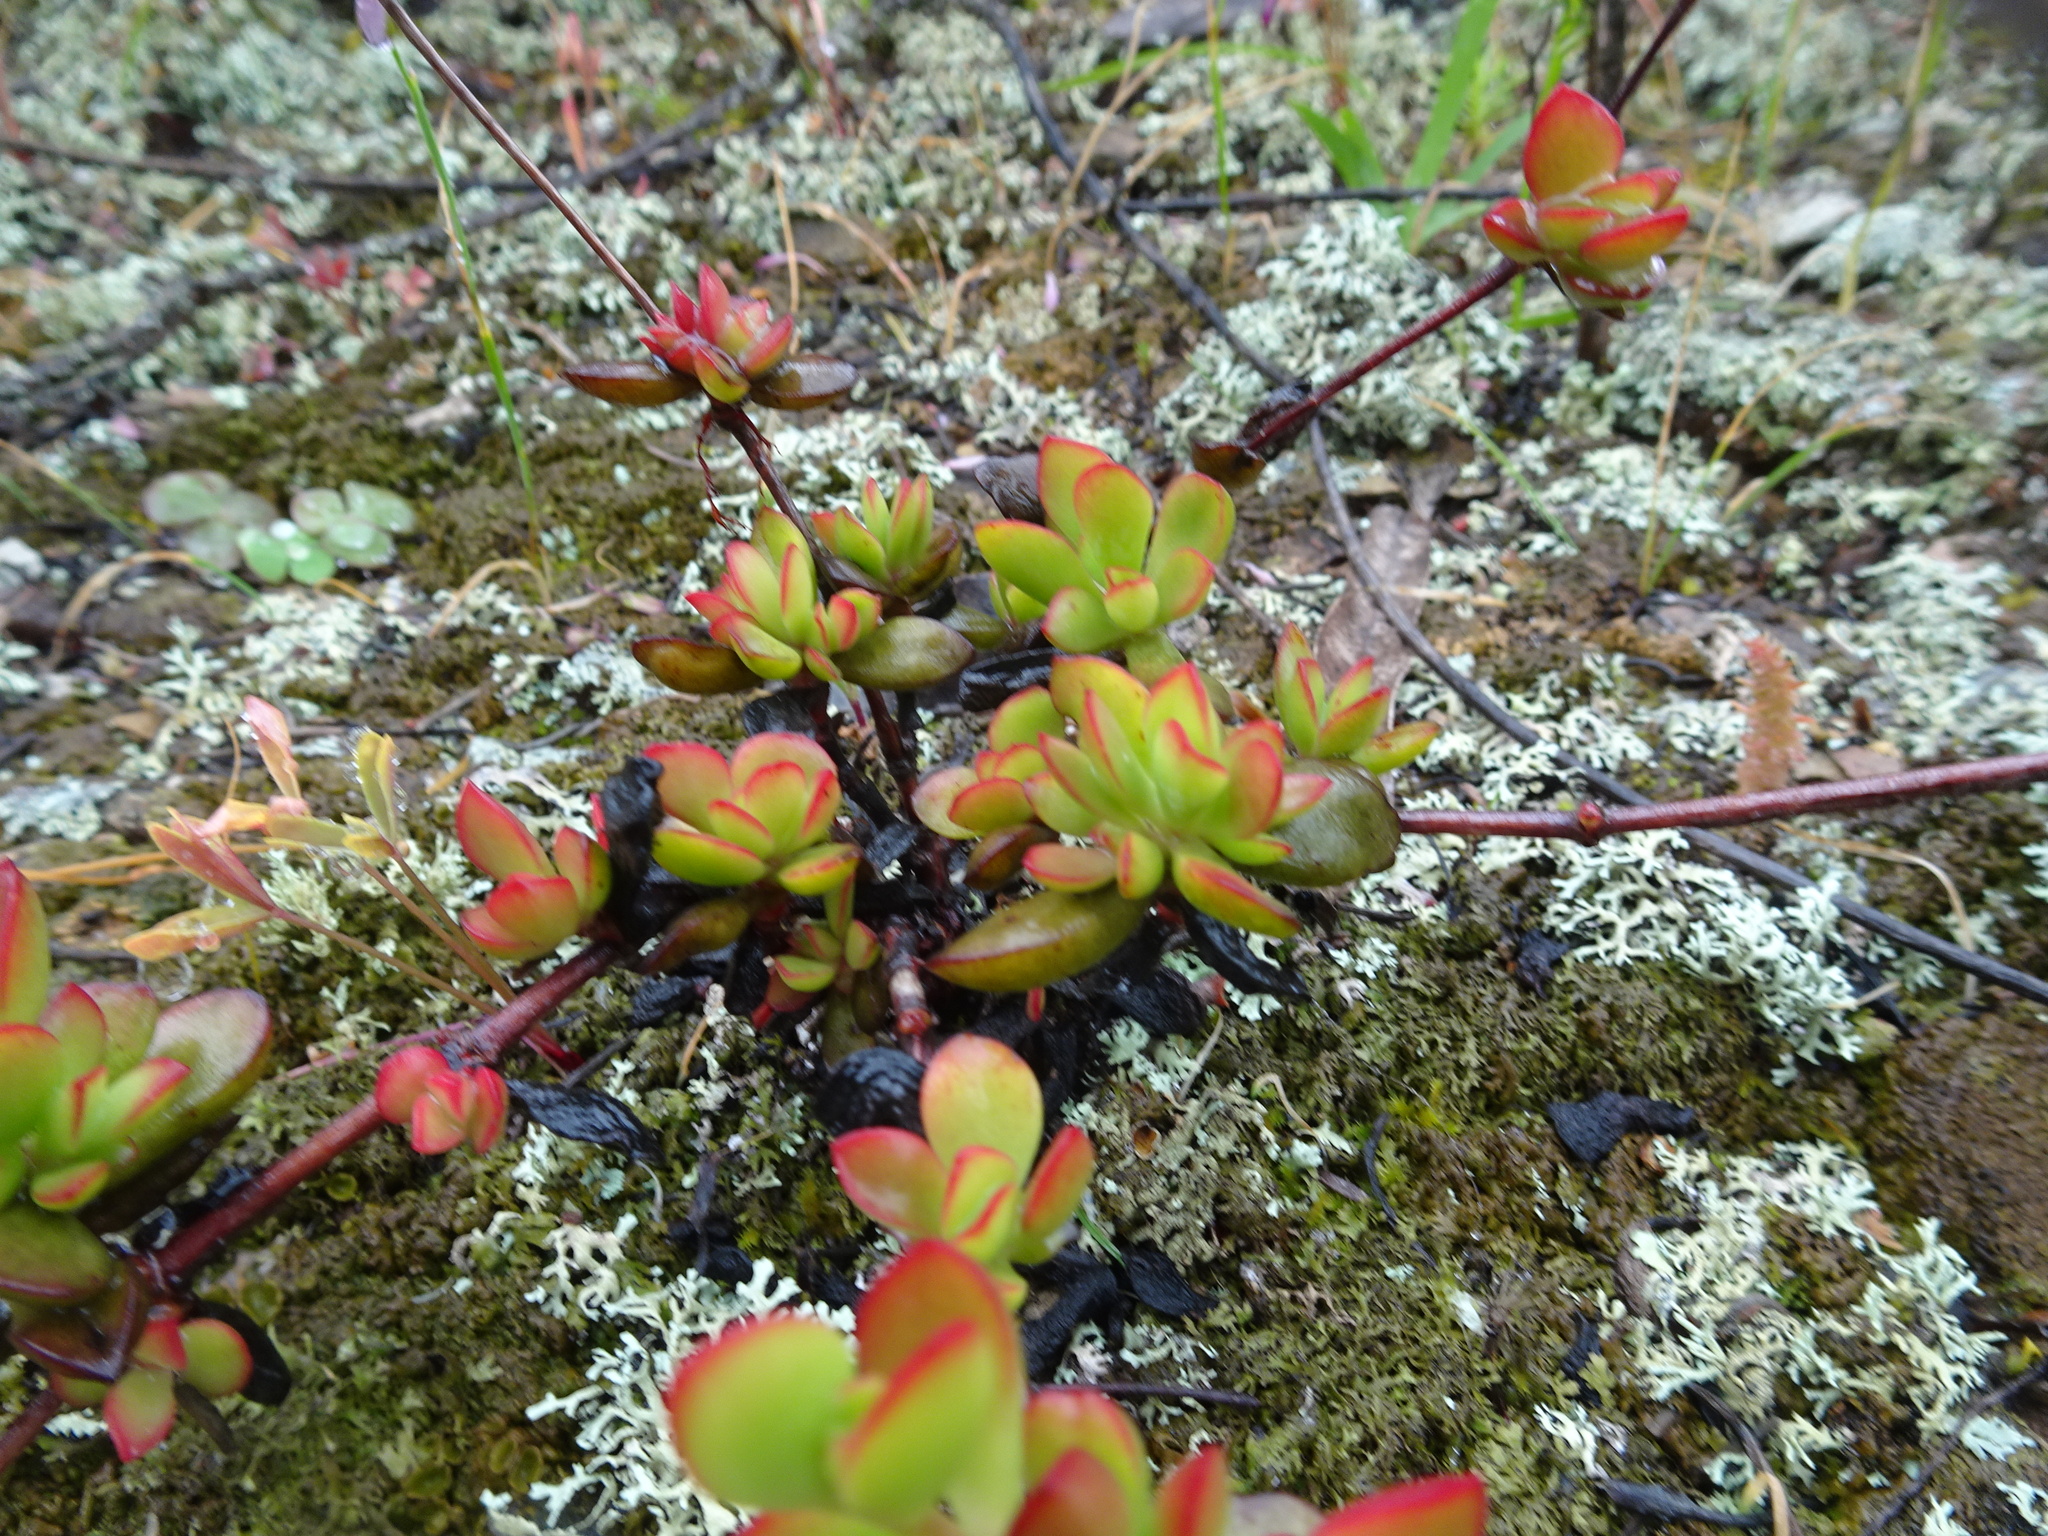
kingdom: Plantae
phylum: Tracheophyta
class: Magnoliopsida
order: Saxifragales
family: Crassulaceae
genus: Crassula
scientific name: Crassula atropurpurea
